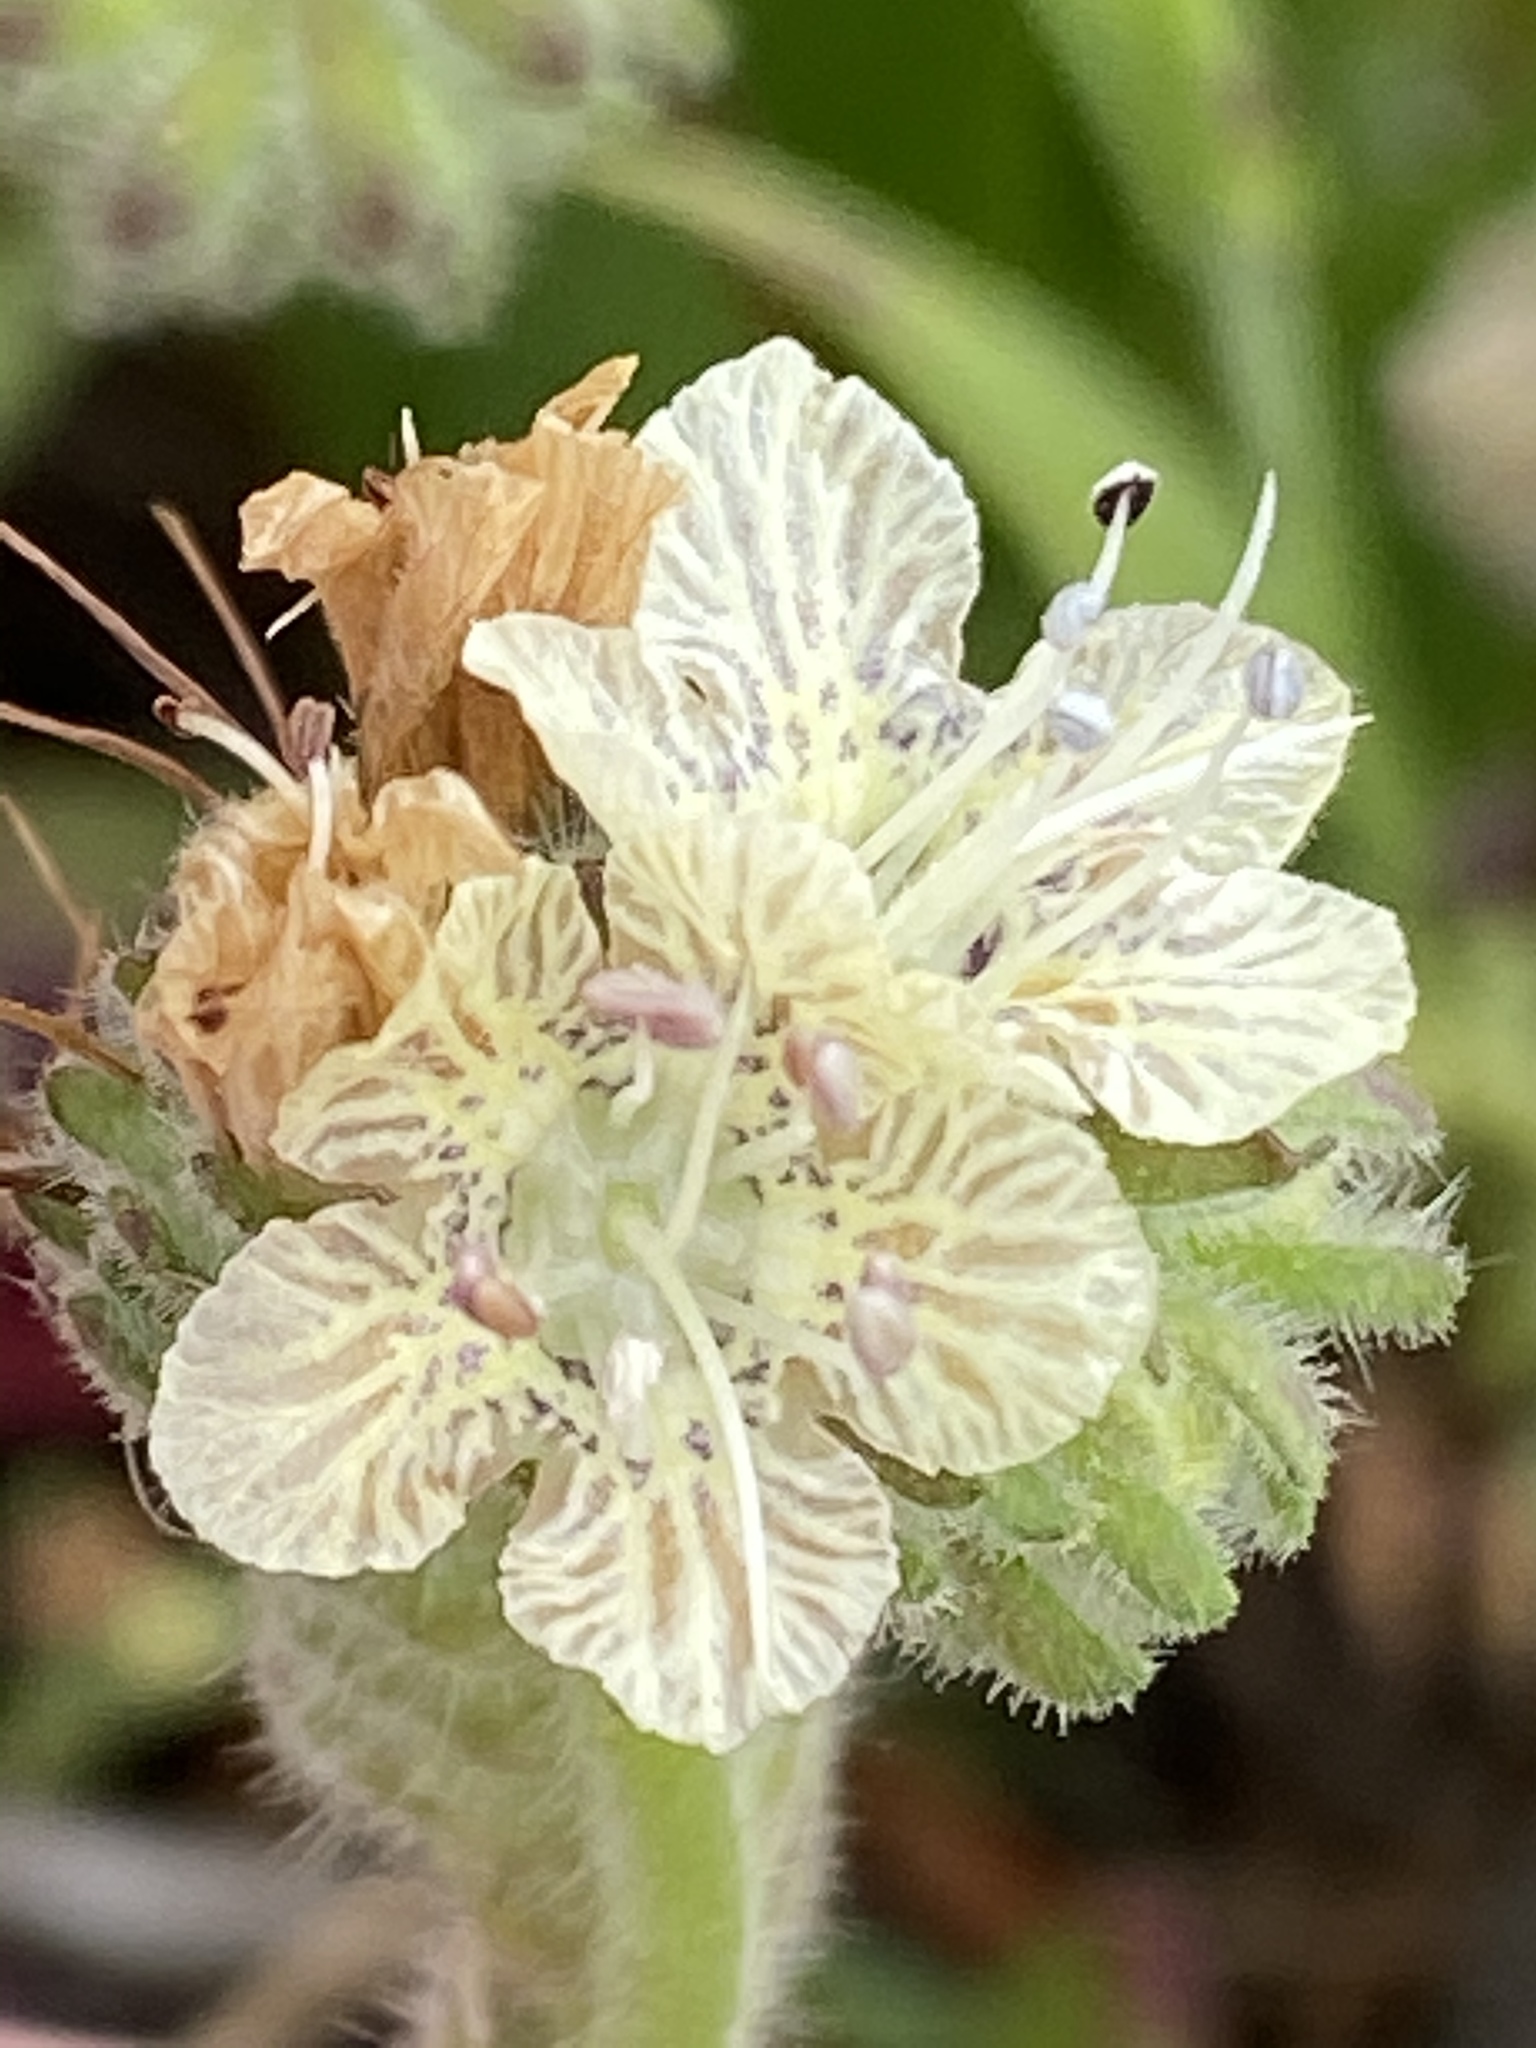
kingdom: Plantae
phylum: Tracheophyta
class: Magnoliopsida
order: Boraginales
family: Hydrophyllaceae
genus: Phacelia
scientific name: Phacelia distans
